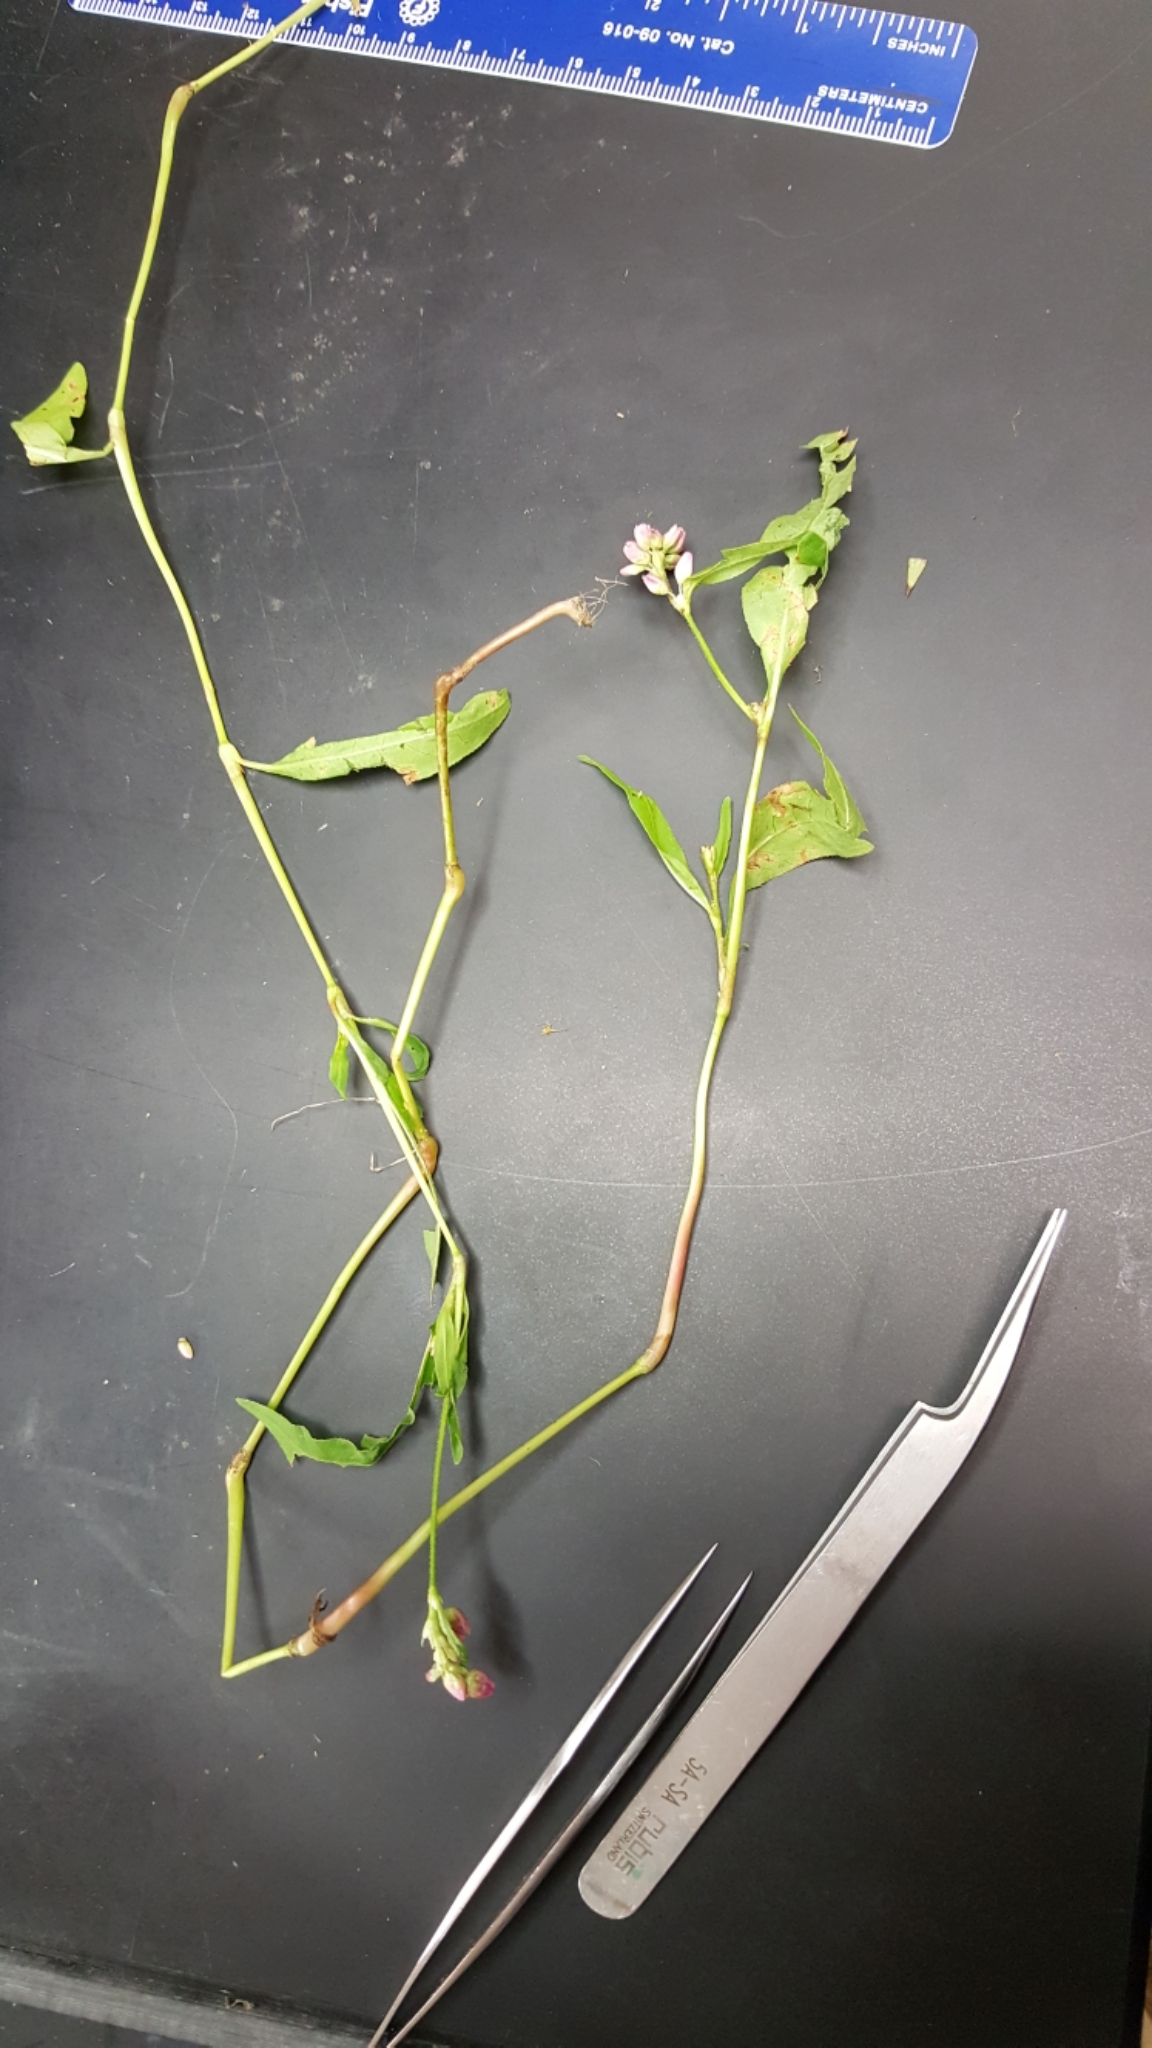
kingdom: Plantae
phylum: Tracheophyta
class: Magnoliopsida
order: Caryophyllales
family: Polygonaceae
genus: Persicaria
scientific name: Persicaria pensylvanica
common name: Pinkweed
